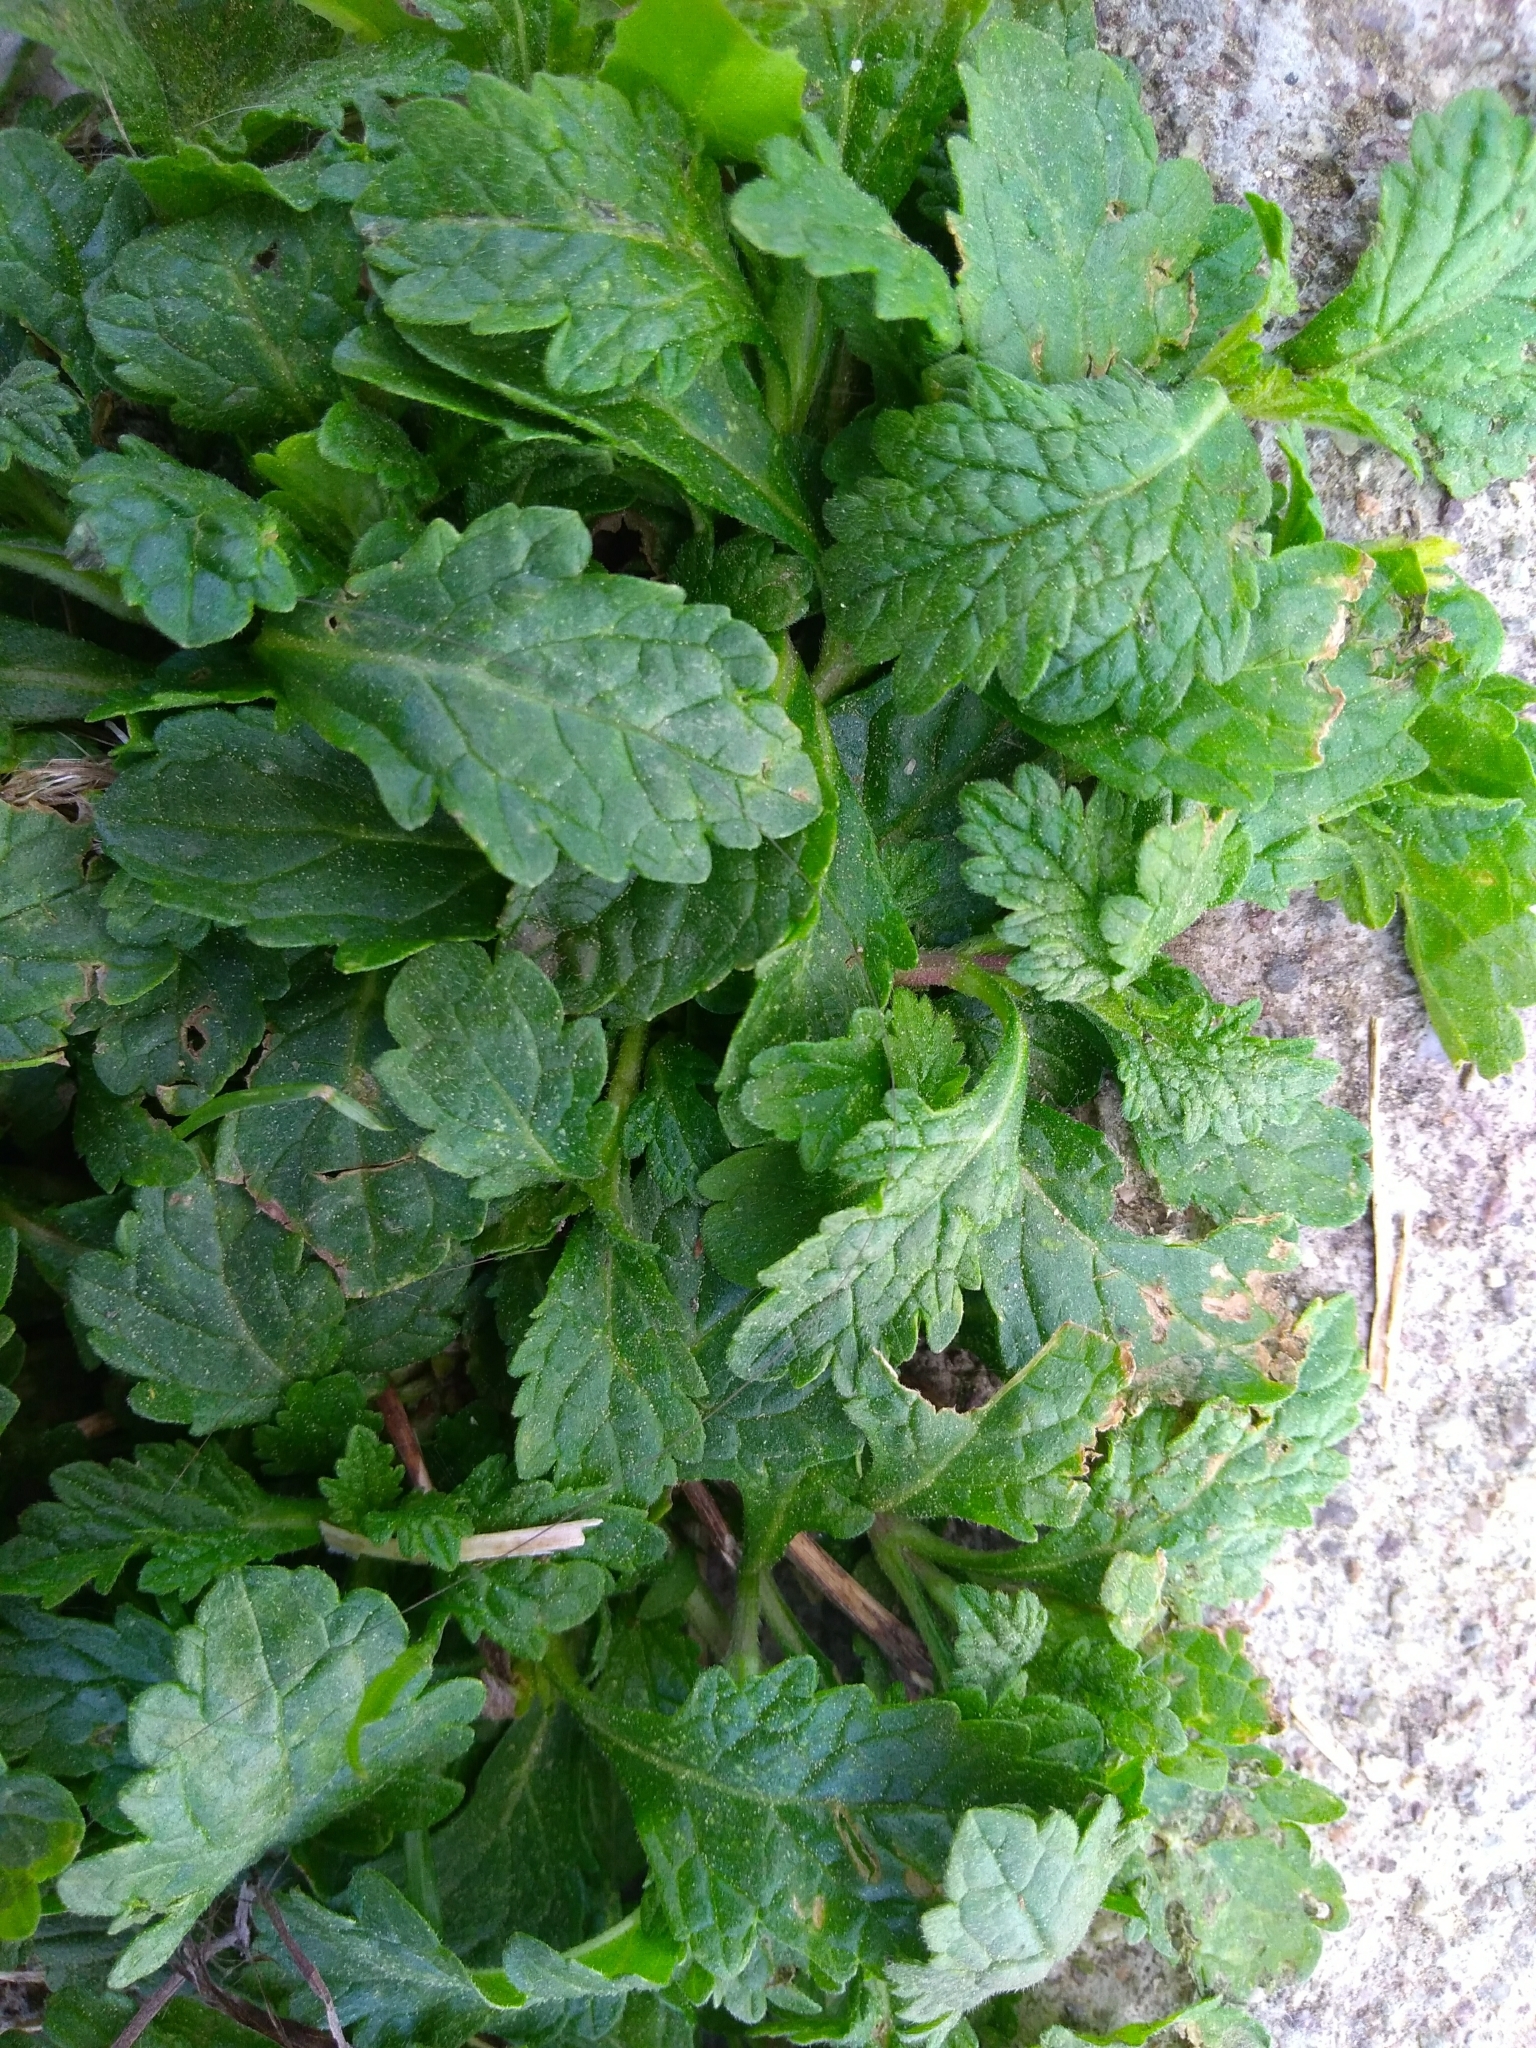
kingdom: Plantae
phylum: Tracheophyta
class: Magnoliopsida
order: Lamiales
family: Verbenaceae
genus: Verbena
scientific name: Verbena officinalis
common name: Vervain
